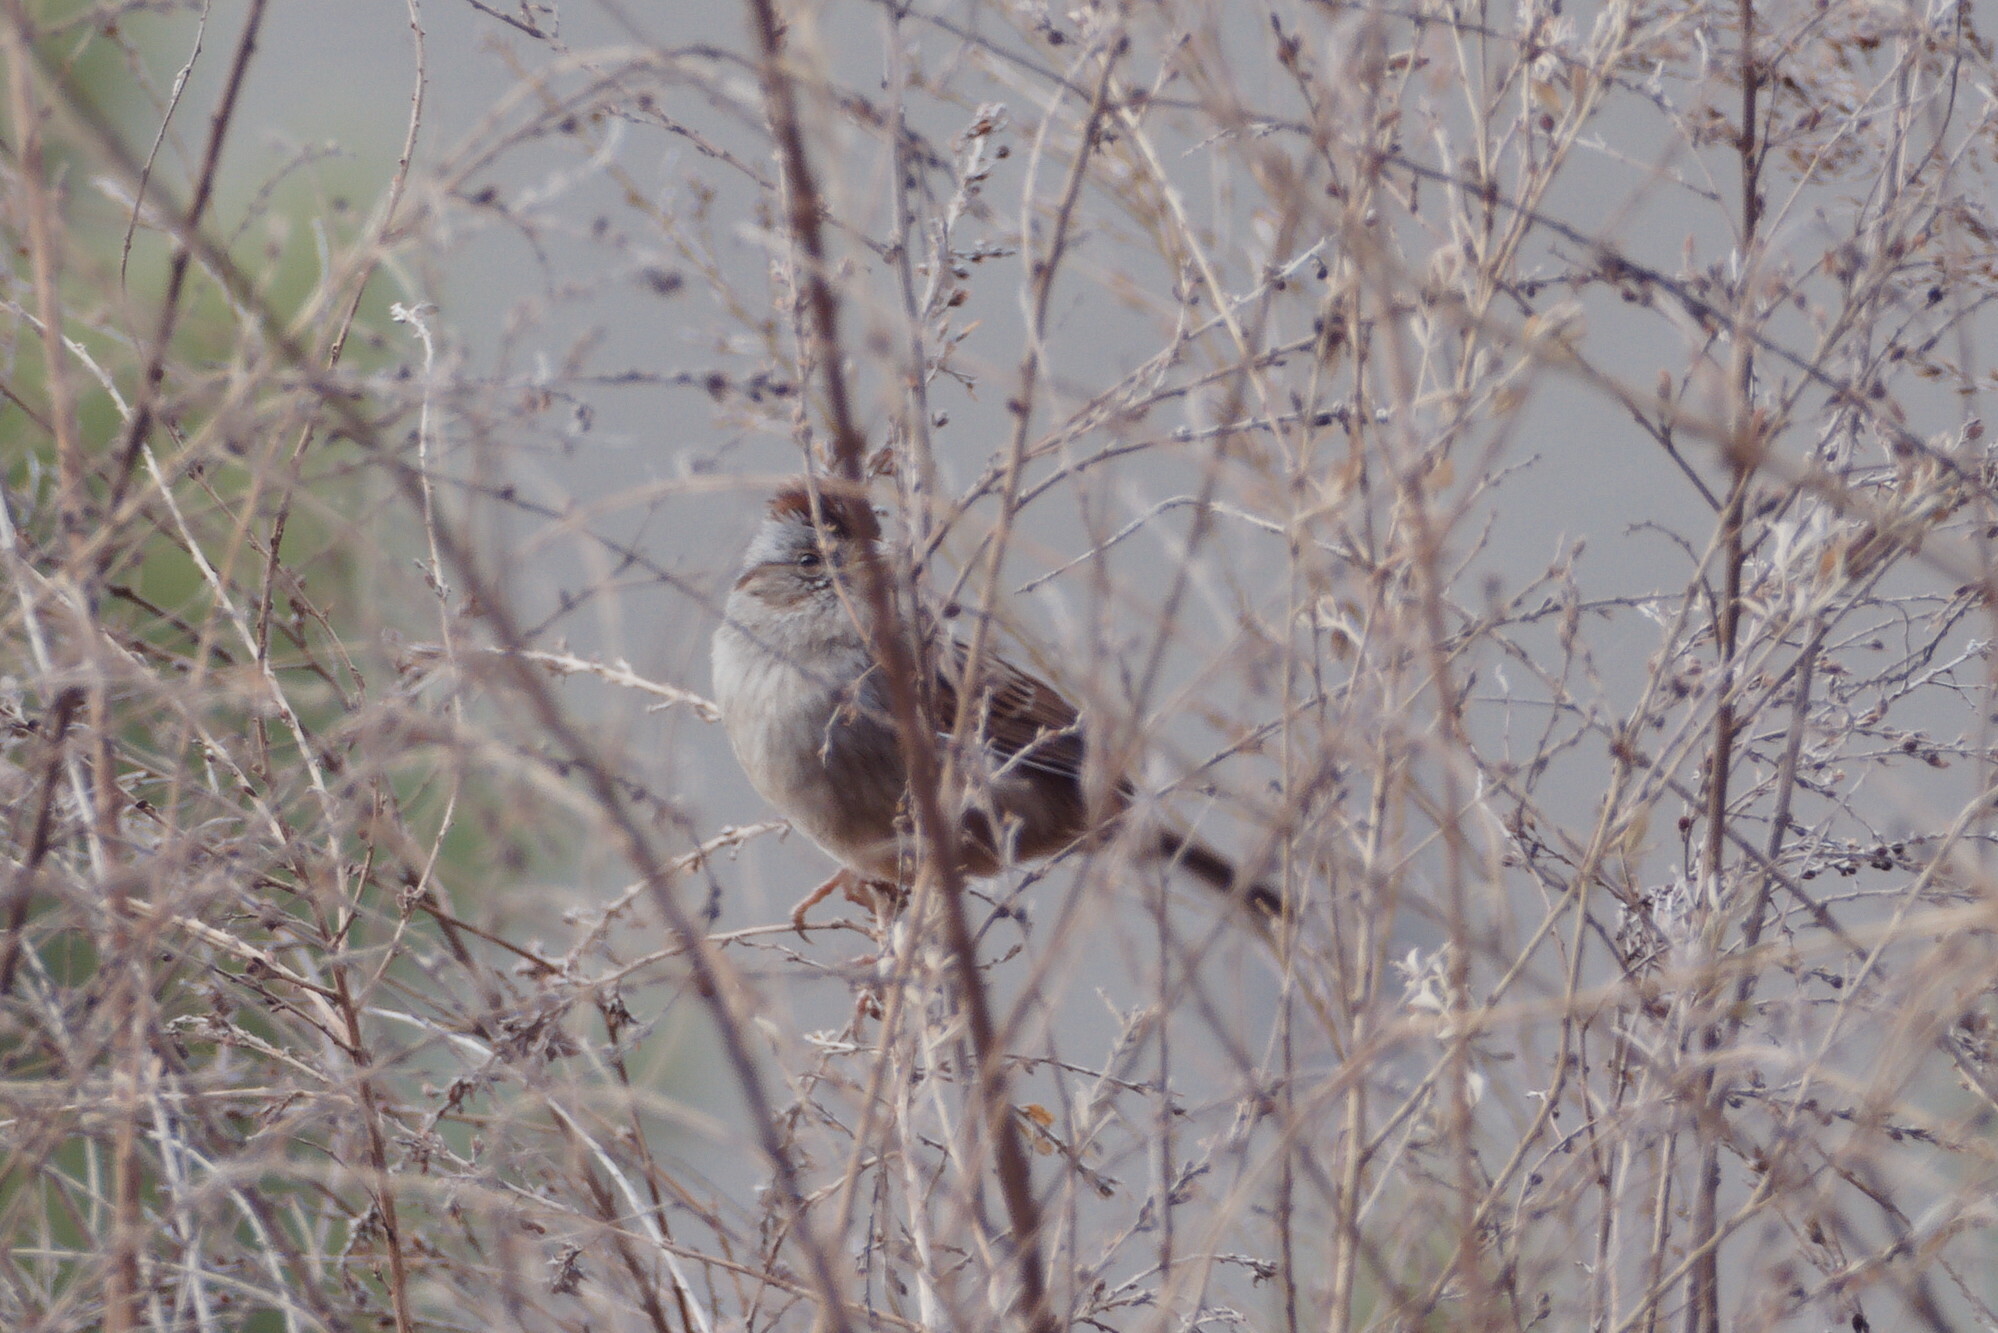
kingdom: Animalia
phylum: Chordata
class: Aves
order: Passeriformes
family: Passerellidae
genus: Melospiza
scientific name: Melospiza georgiana
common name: Swamp sparrow
